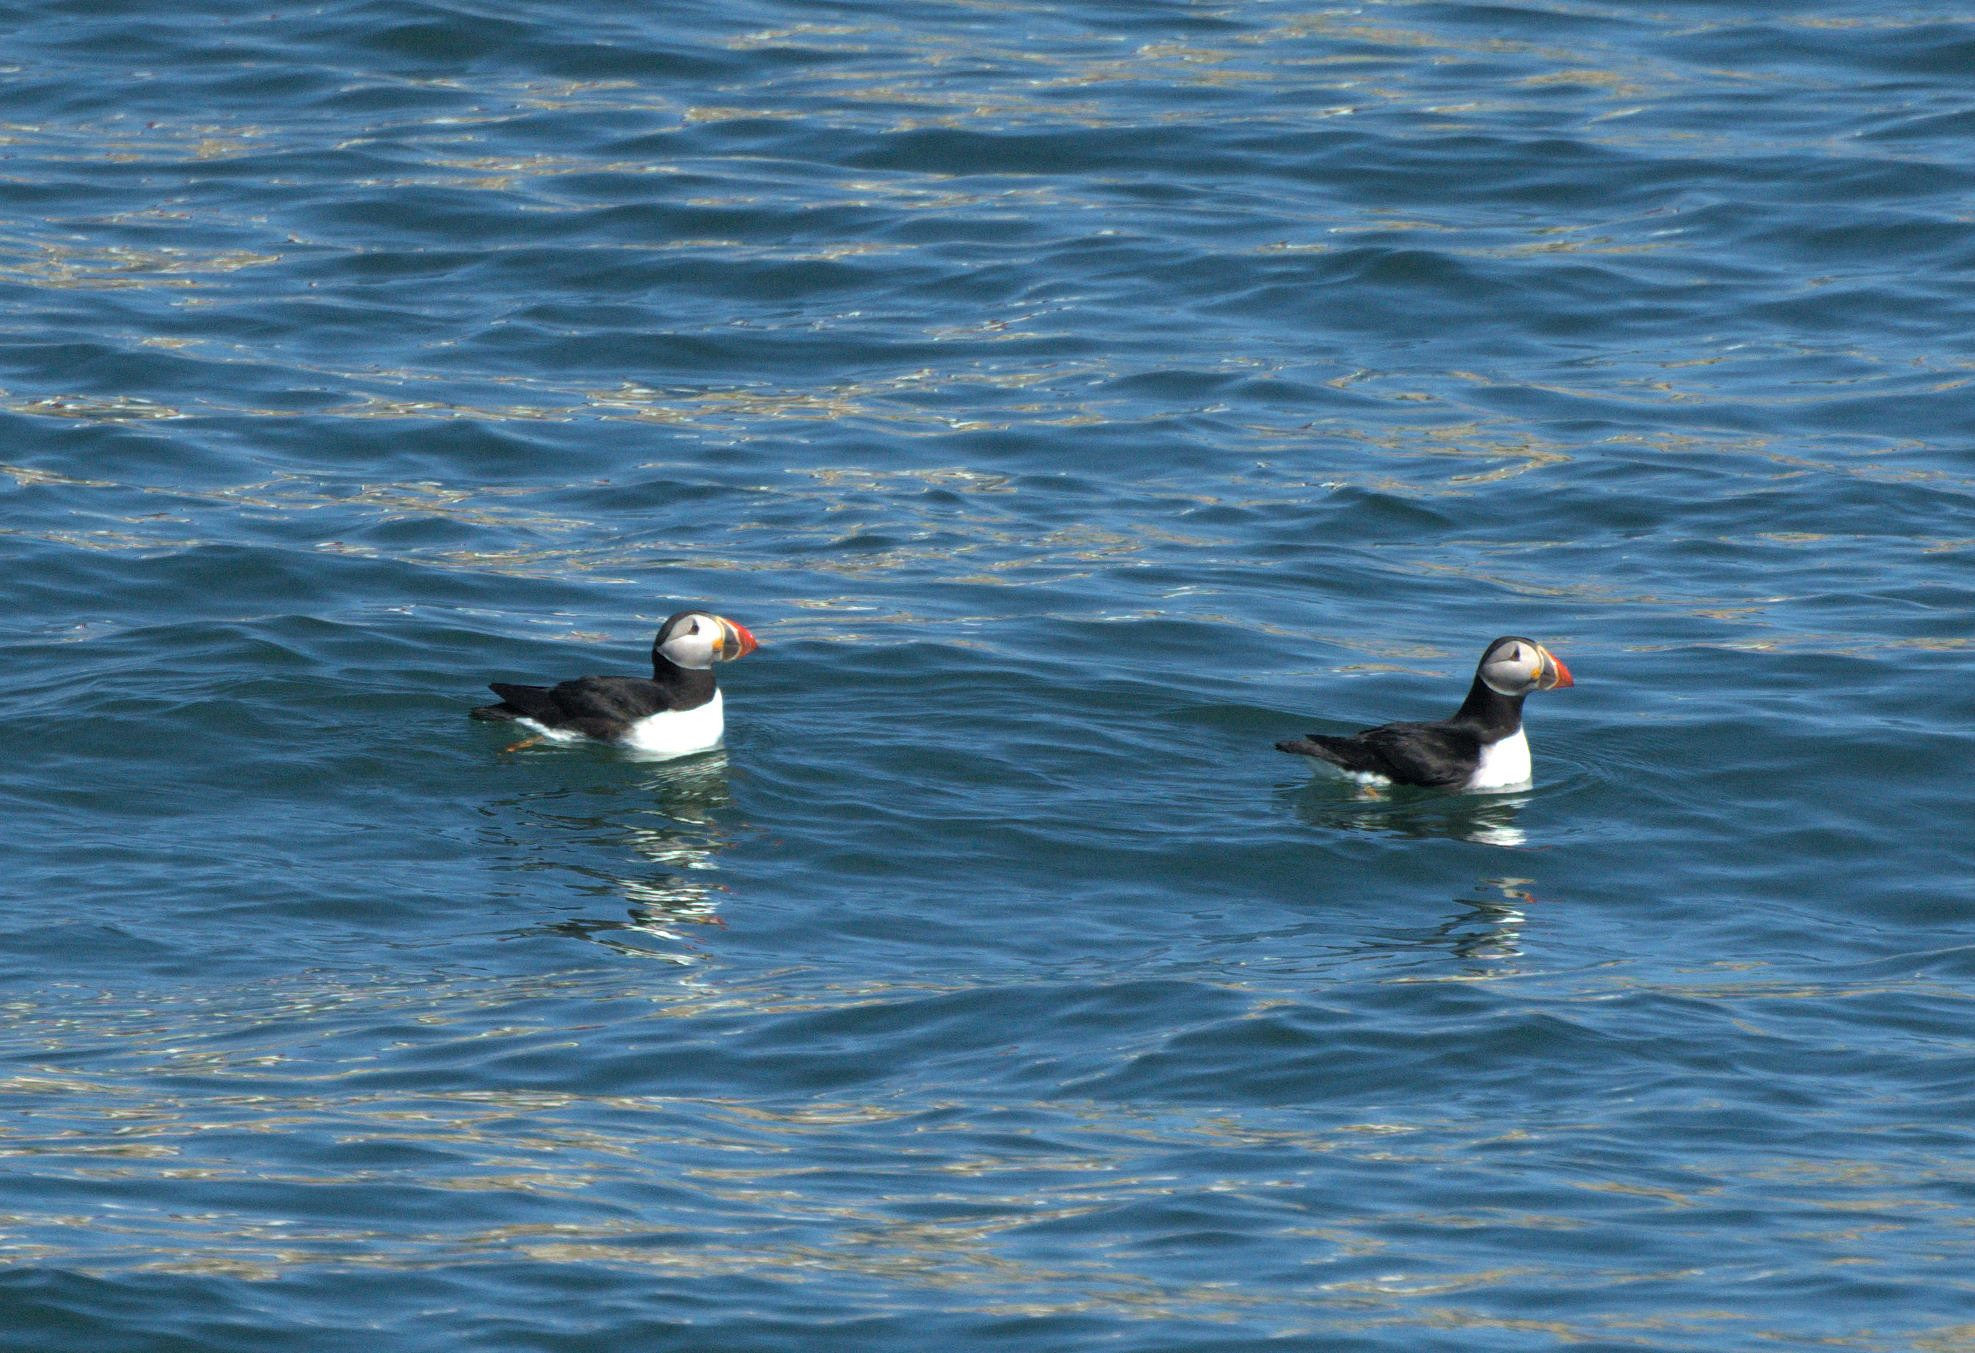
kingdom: Animalia
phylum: Chordata
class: Aves
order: Charadriiformes
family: Alcidae
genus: Fratercula
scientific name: Fratercula arctica
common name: Atlantic puffin
